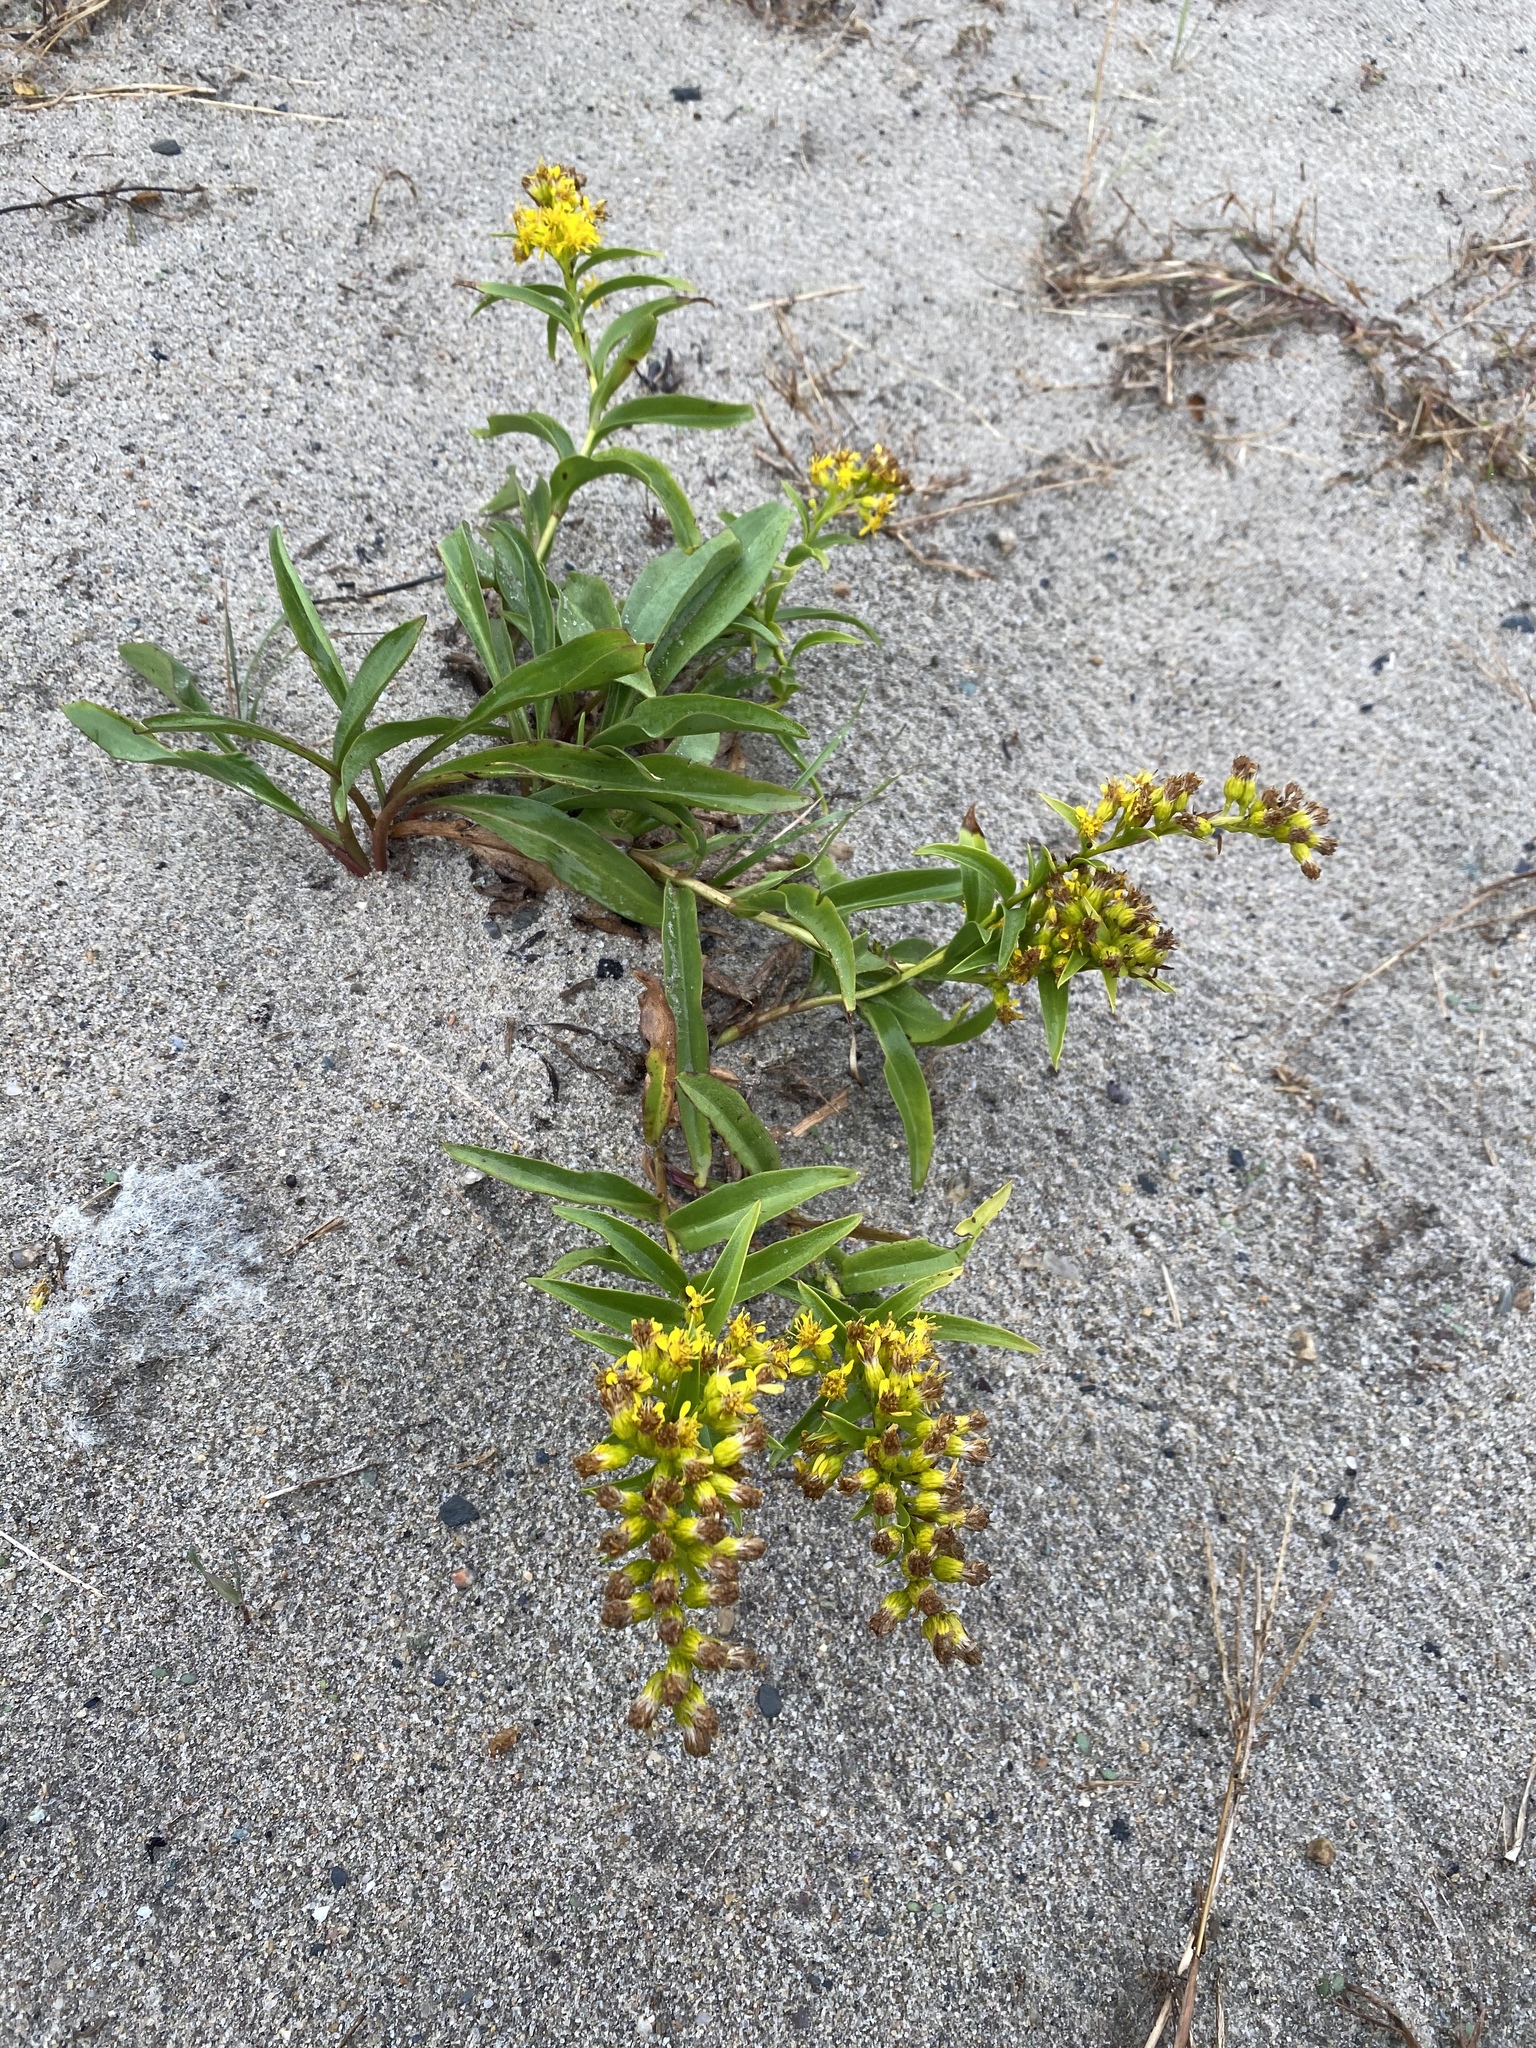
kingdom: Plantae
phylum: Tracheophyta
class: Magnoliopsida
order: Asterales
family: Asteraceae
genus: Solidago
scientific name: Solidago sempervirens
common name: Salt-marsh goldenrod
